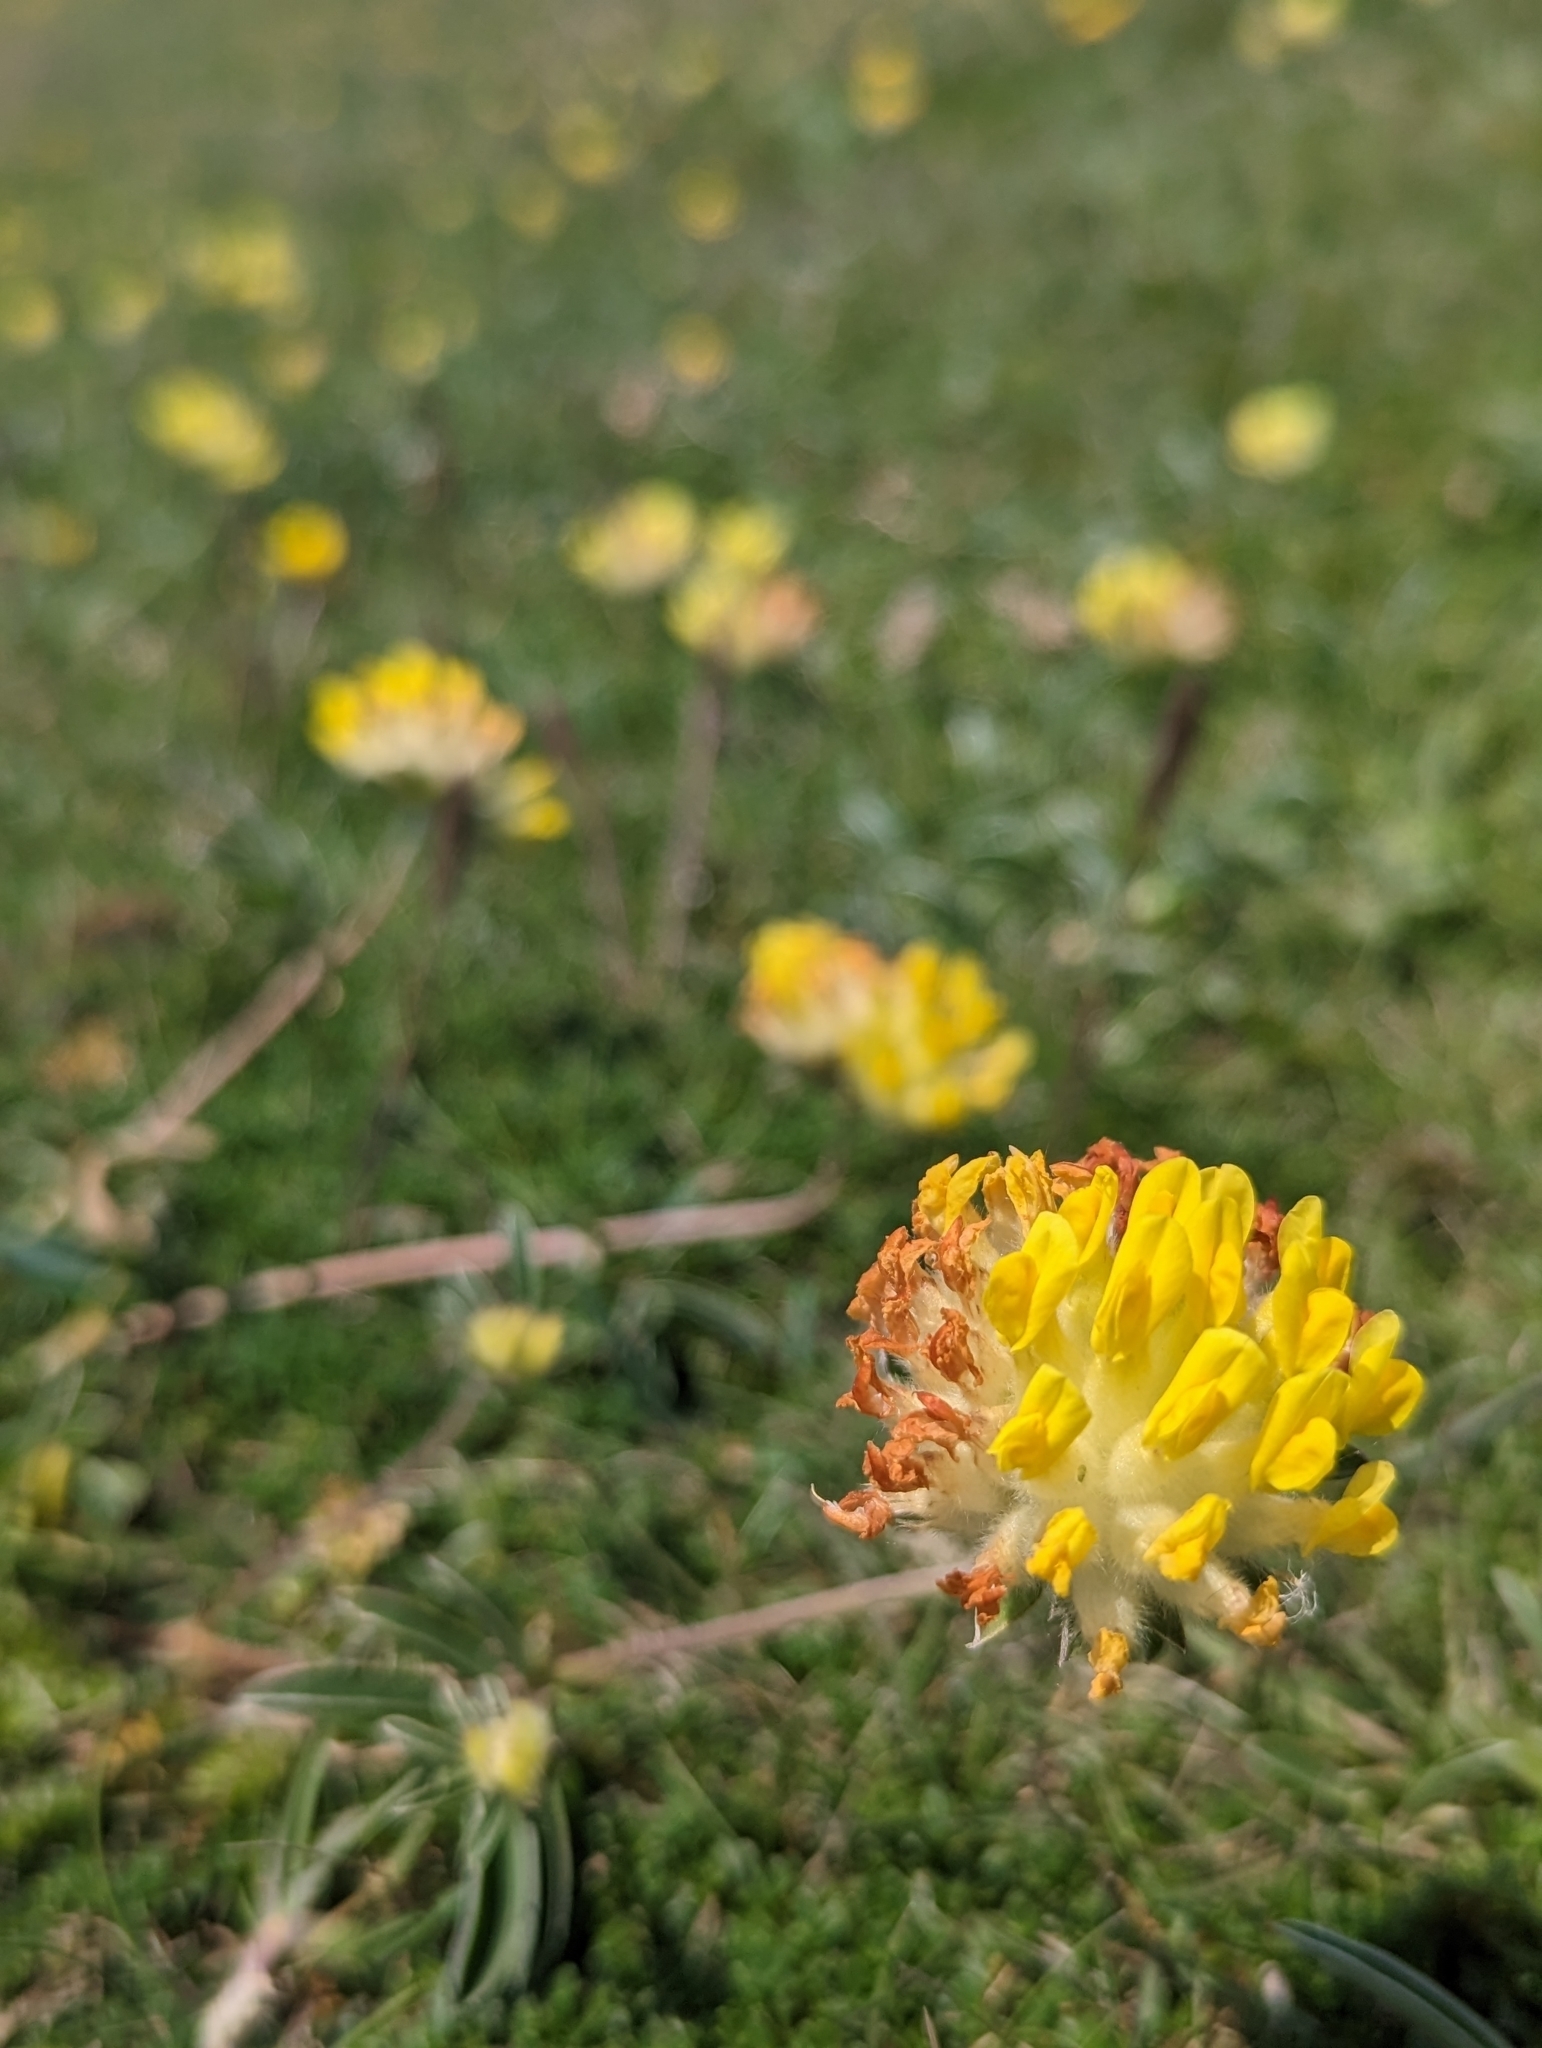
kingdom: Plantae
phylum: Tracheophyta
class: Magnoliopsida
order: Fabales
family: Fabaceae
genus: Anthyllis
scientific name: Anthyllis vulneraria
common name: Kidney vetch
